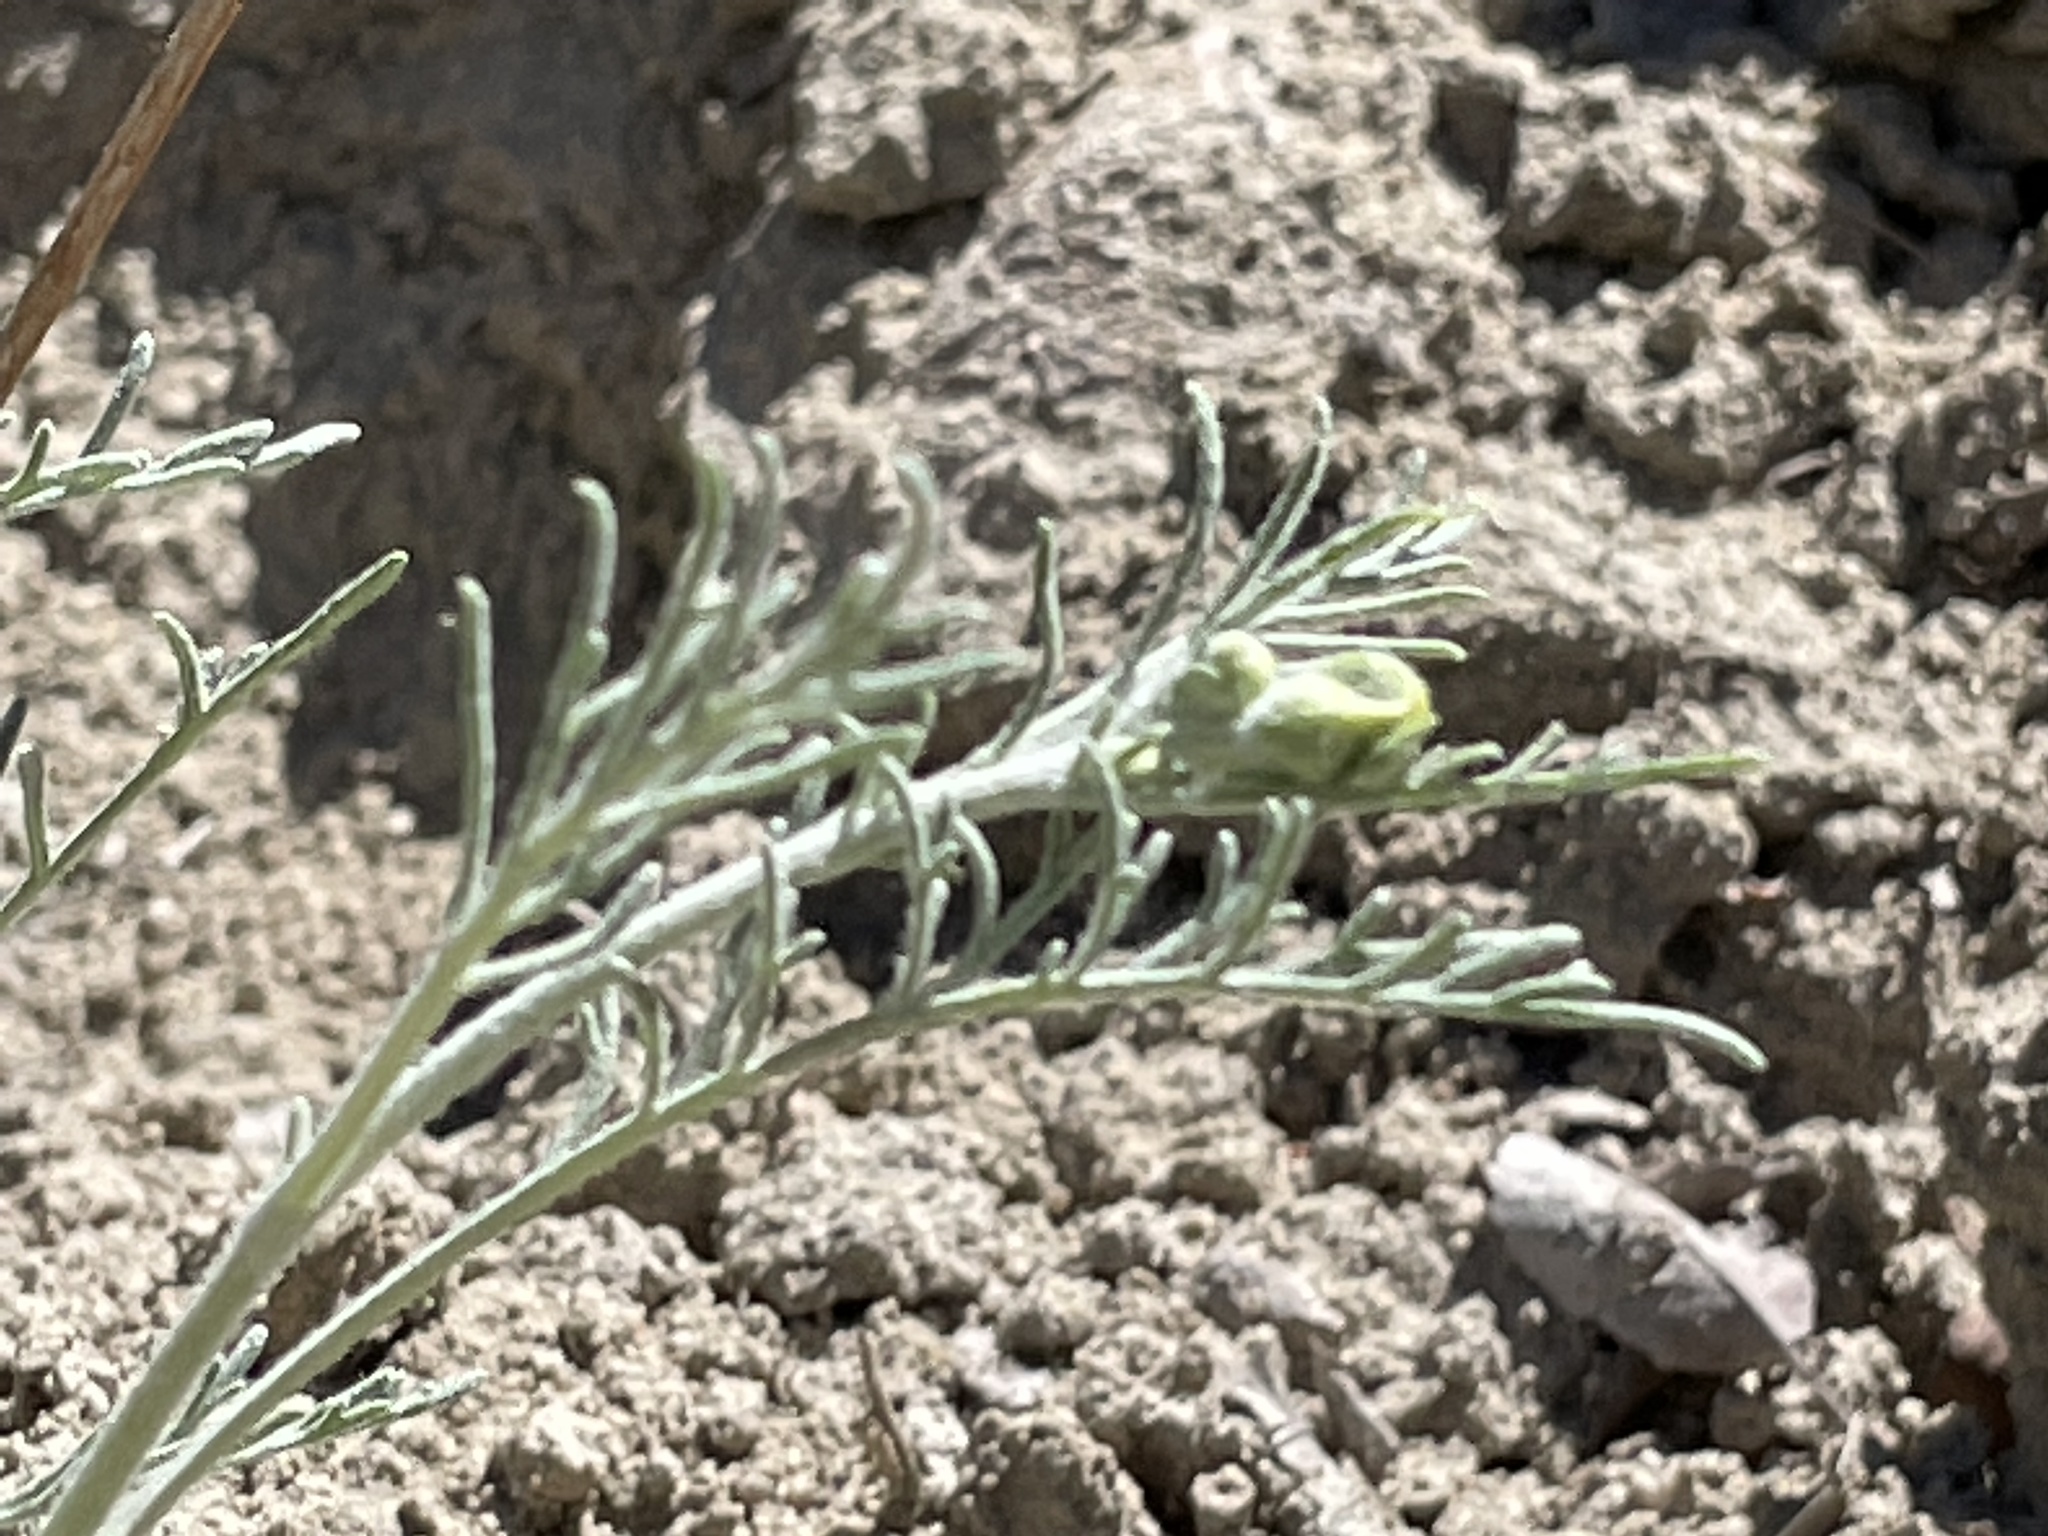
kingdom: Plantae
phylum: Tracheophyta
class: Magnoliopsida
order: Asterales
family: Asteraceae
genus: Hymenopappus
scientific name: Hymenopappus filifolius
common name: Columbia cutleaf
